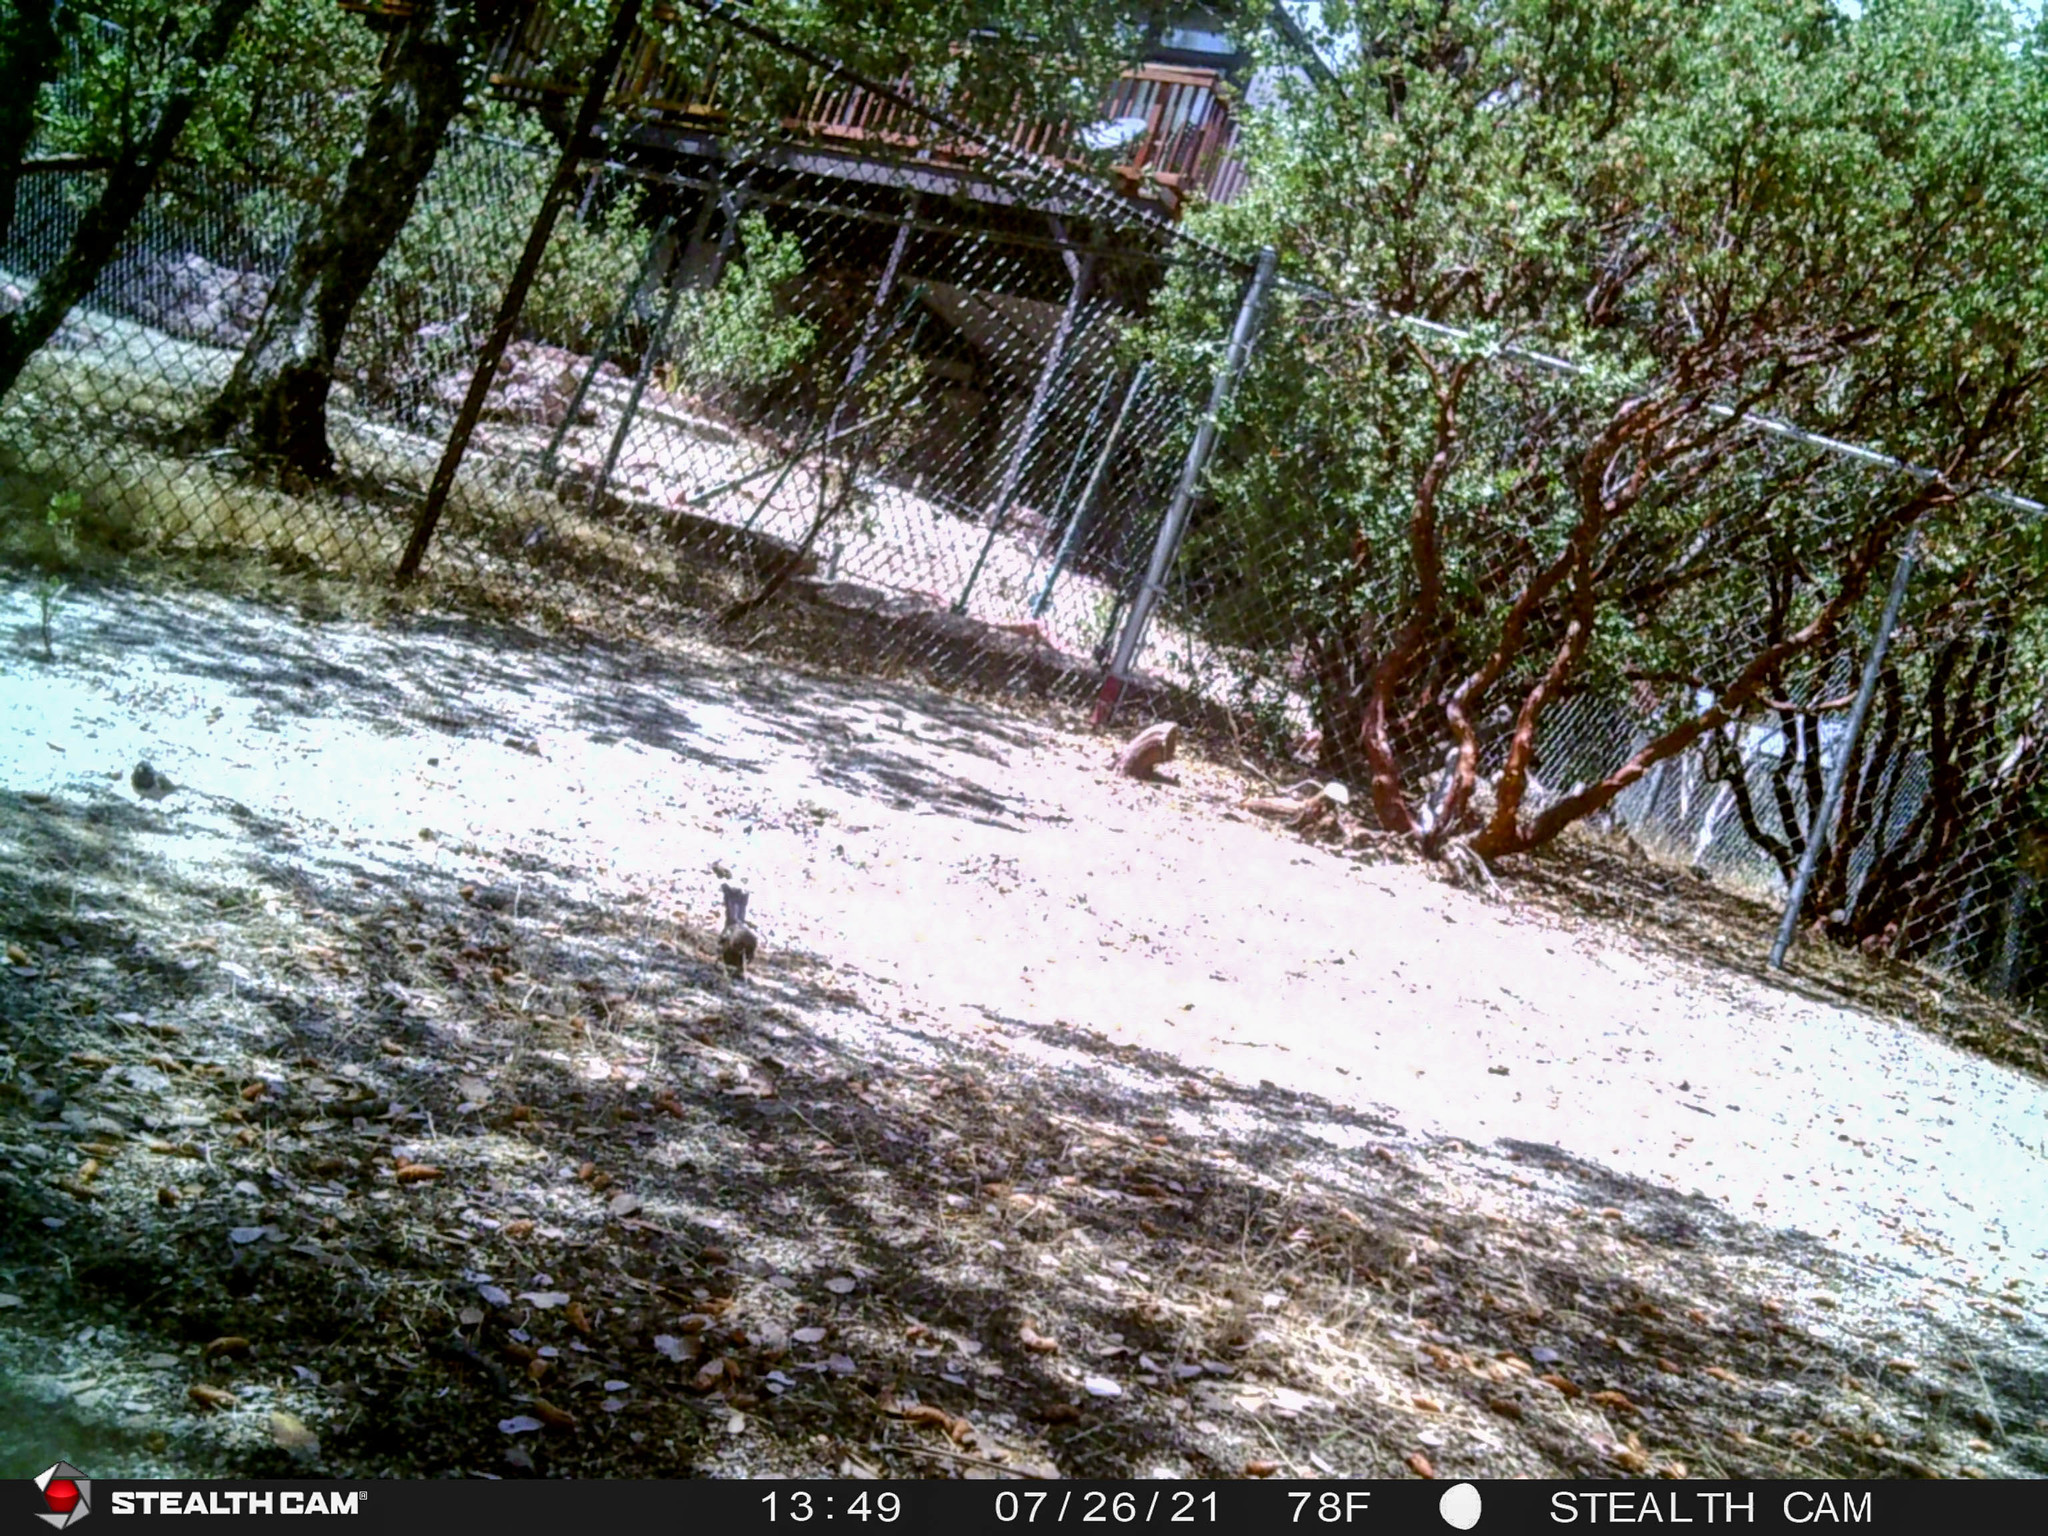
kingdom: Animalia
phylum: Chordata
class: Aves
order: Passeriformes
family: Passerellidae
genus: Junco
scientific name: Junco hyemalis
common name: Dark-eyed junco
